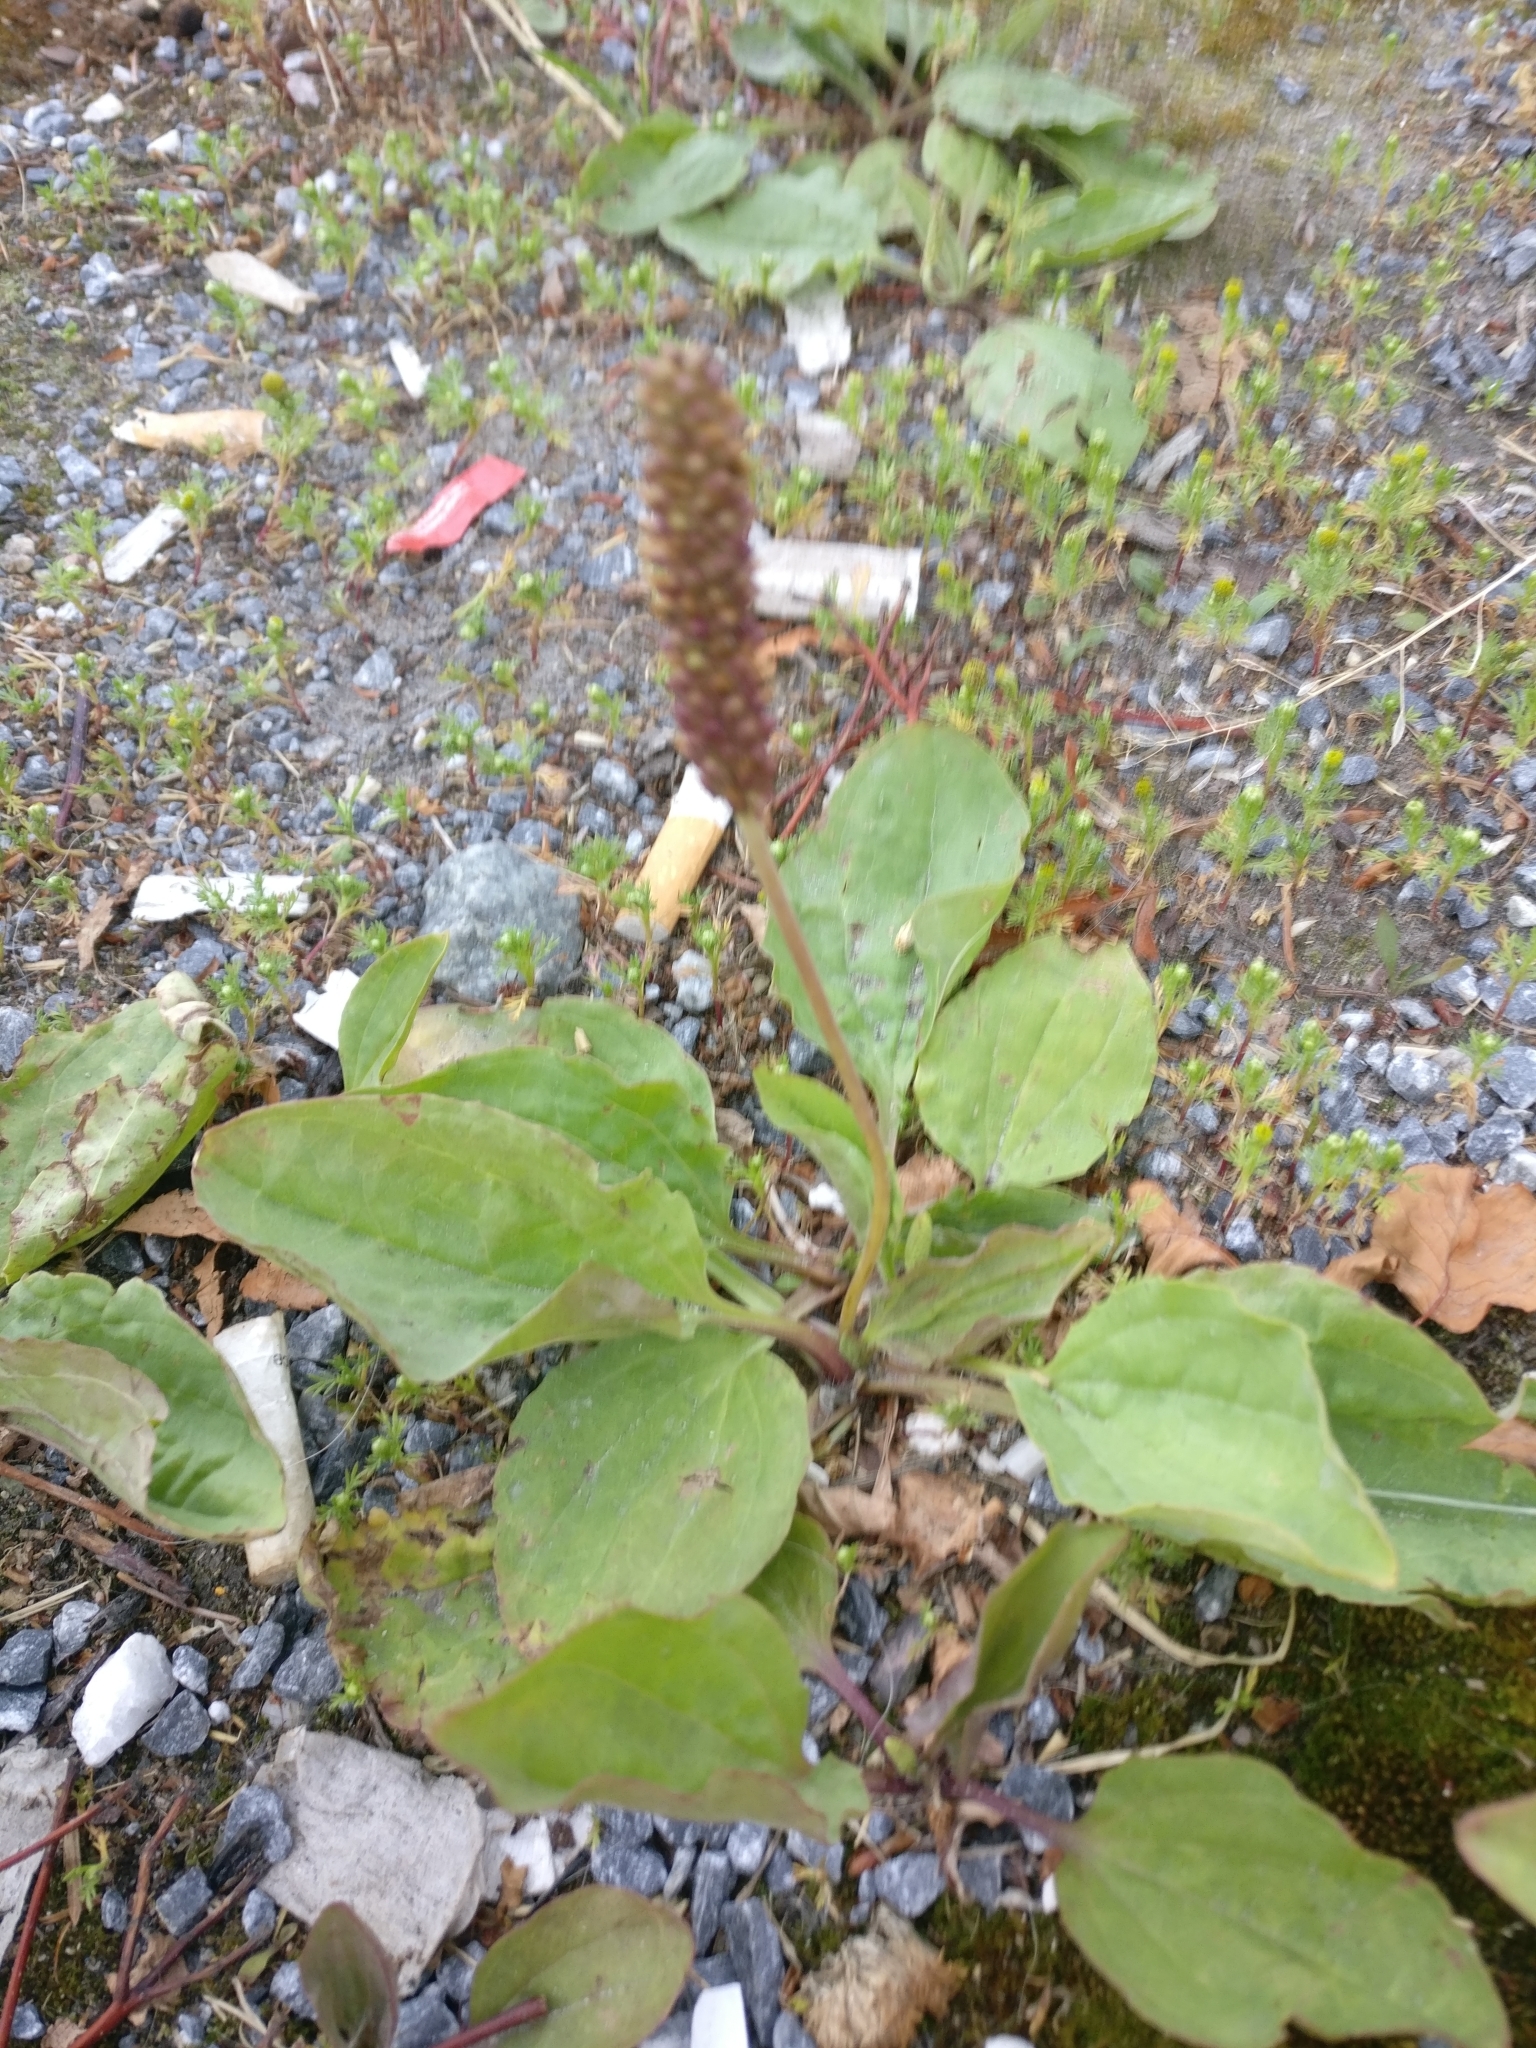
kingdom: Plantae
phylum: Tracheophyta
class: Magnoliopsida
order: Lamiales
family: Plantaginaceae
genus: Plantago
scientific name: Plantago major
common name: Common plantain
